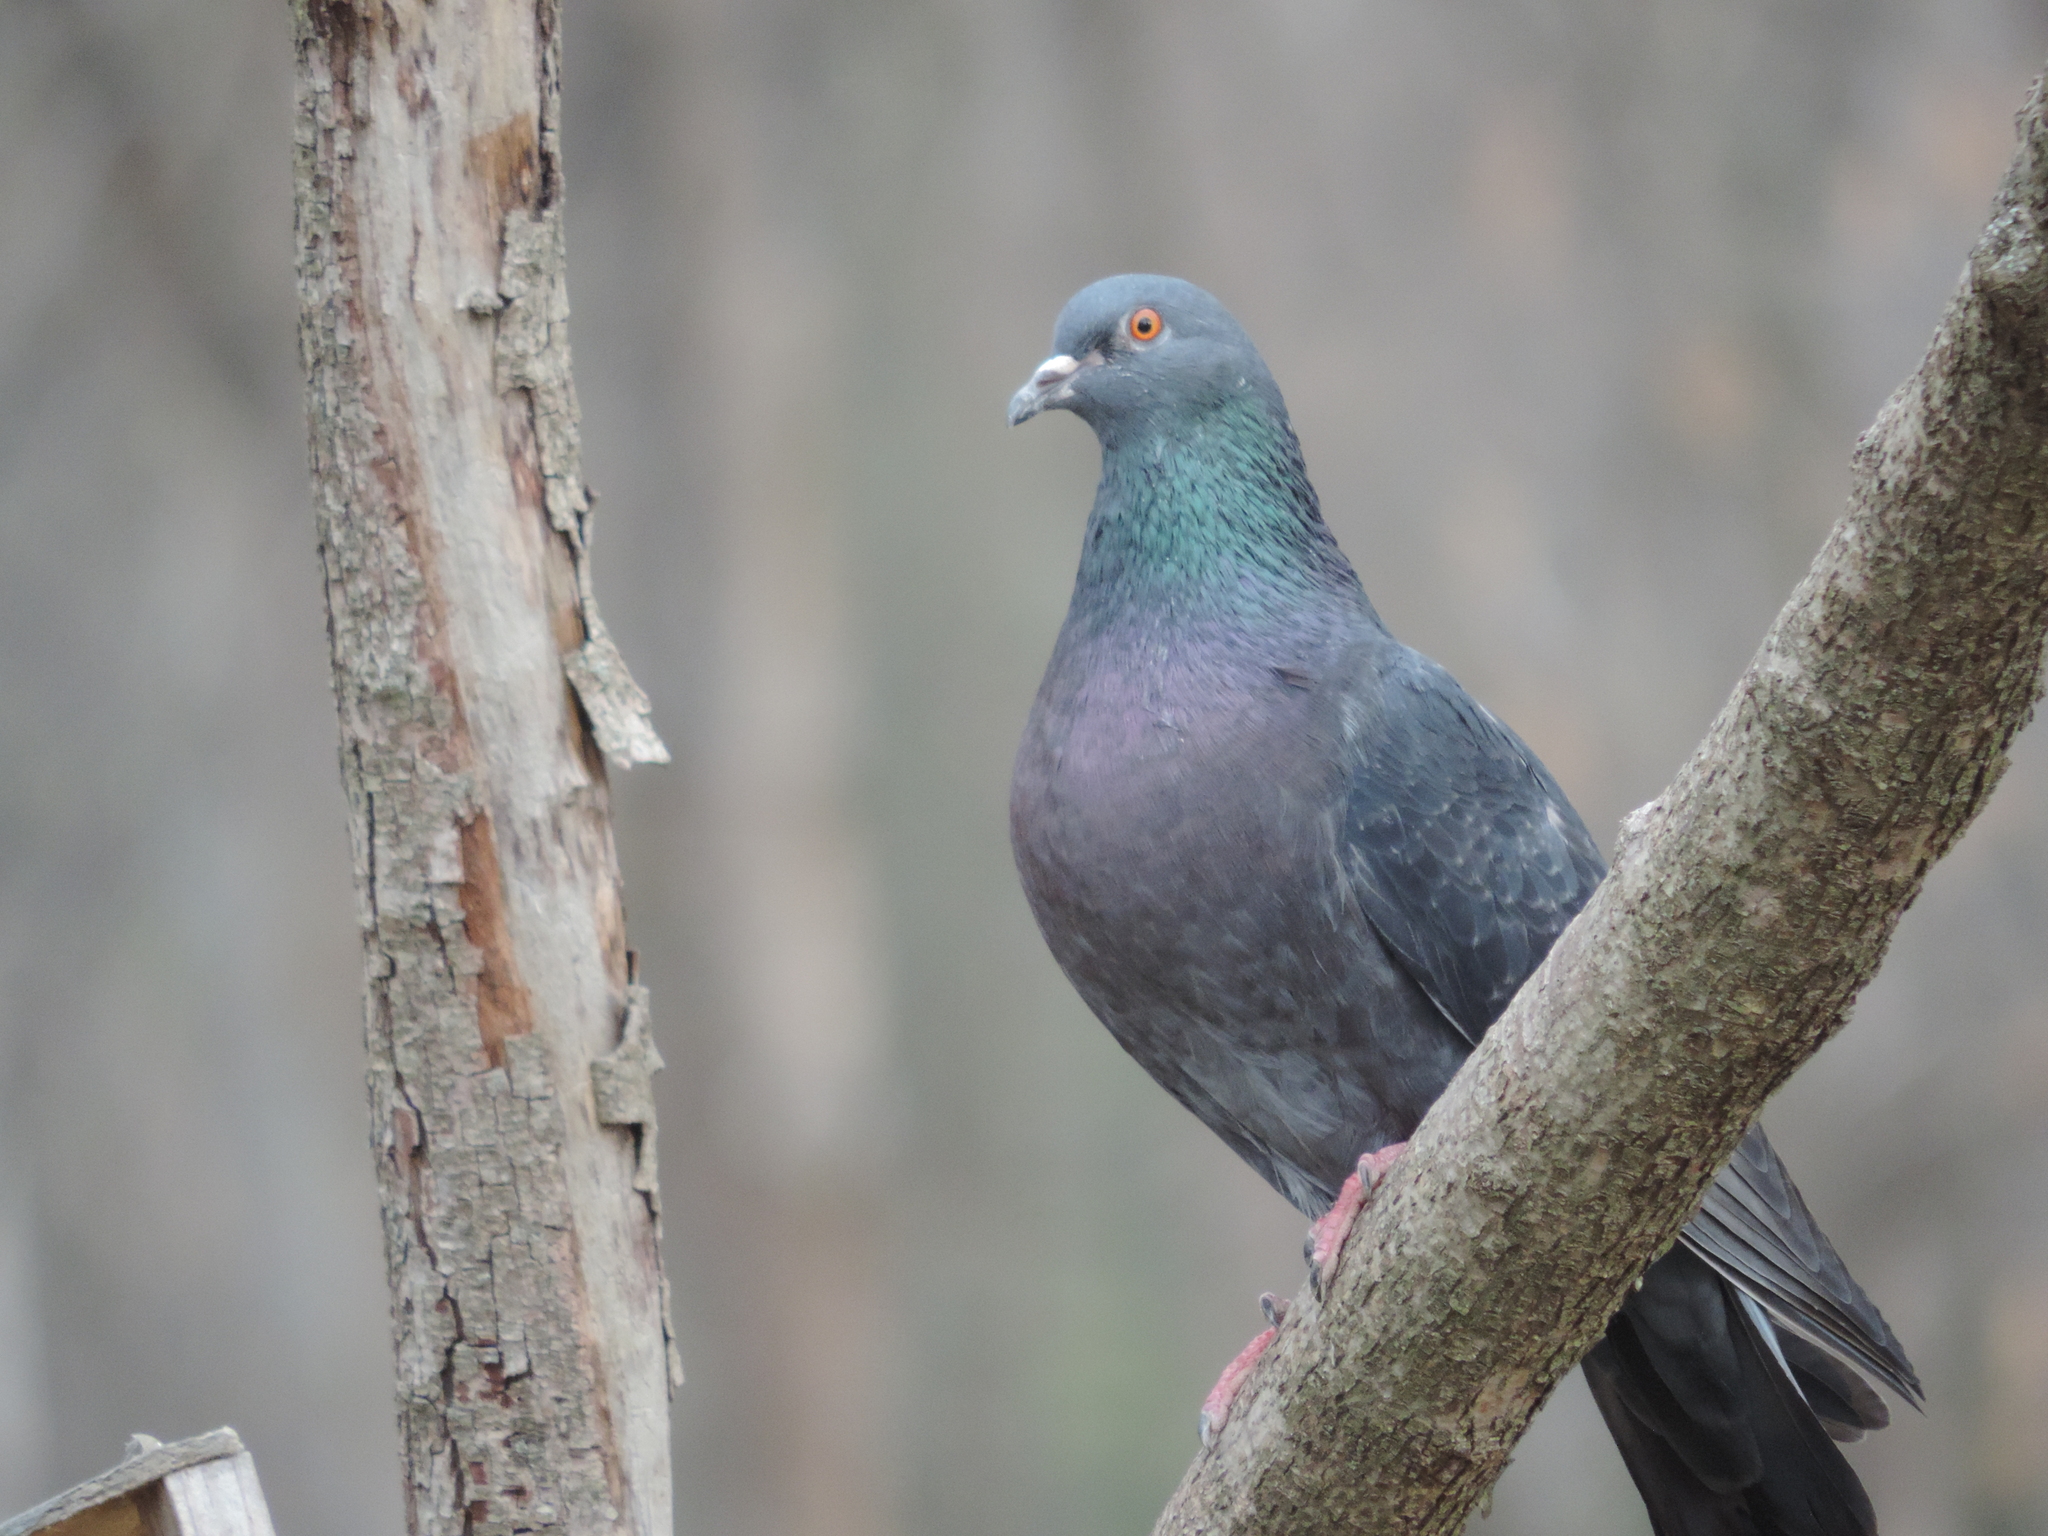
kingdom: Animalia
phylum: Chordata
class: Aves
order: Columbiformes
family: Columbidae
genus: Columba
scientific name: Columba livia
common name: Rock pigeon
